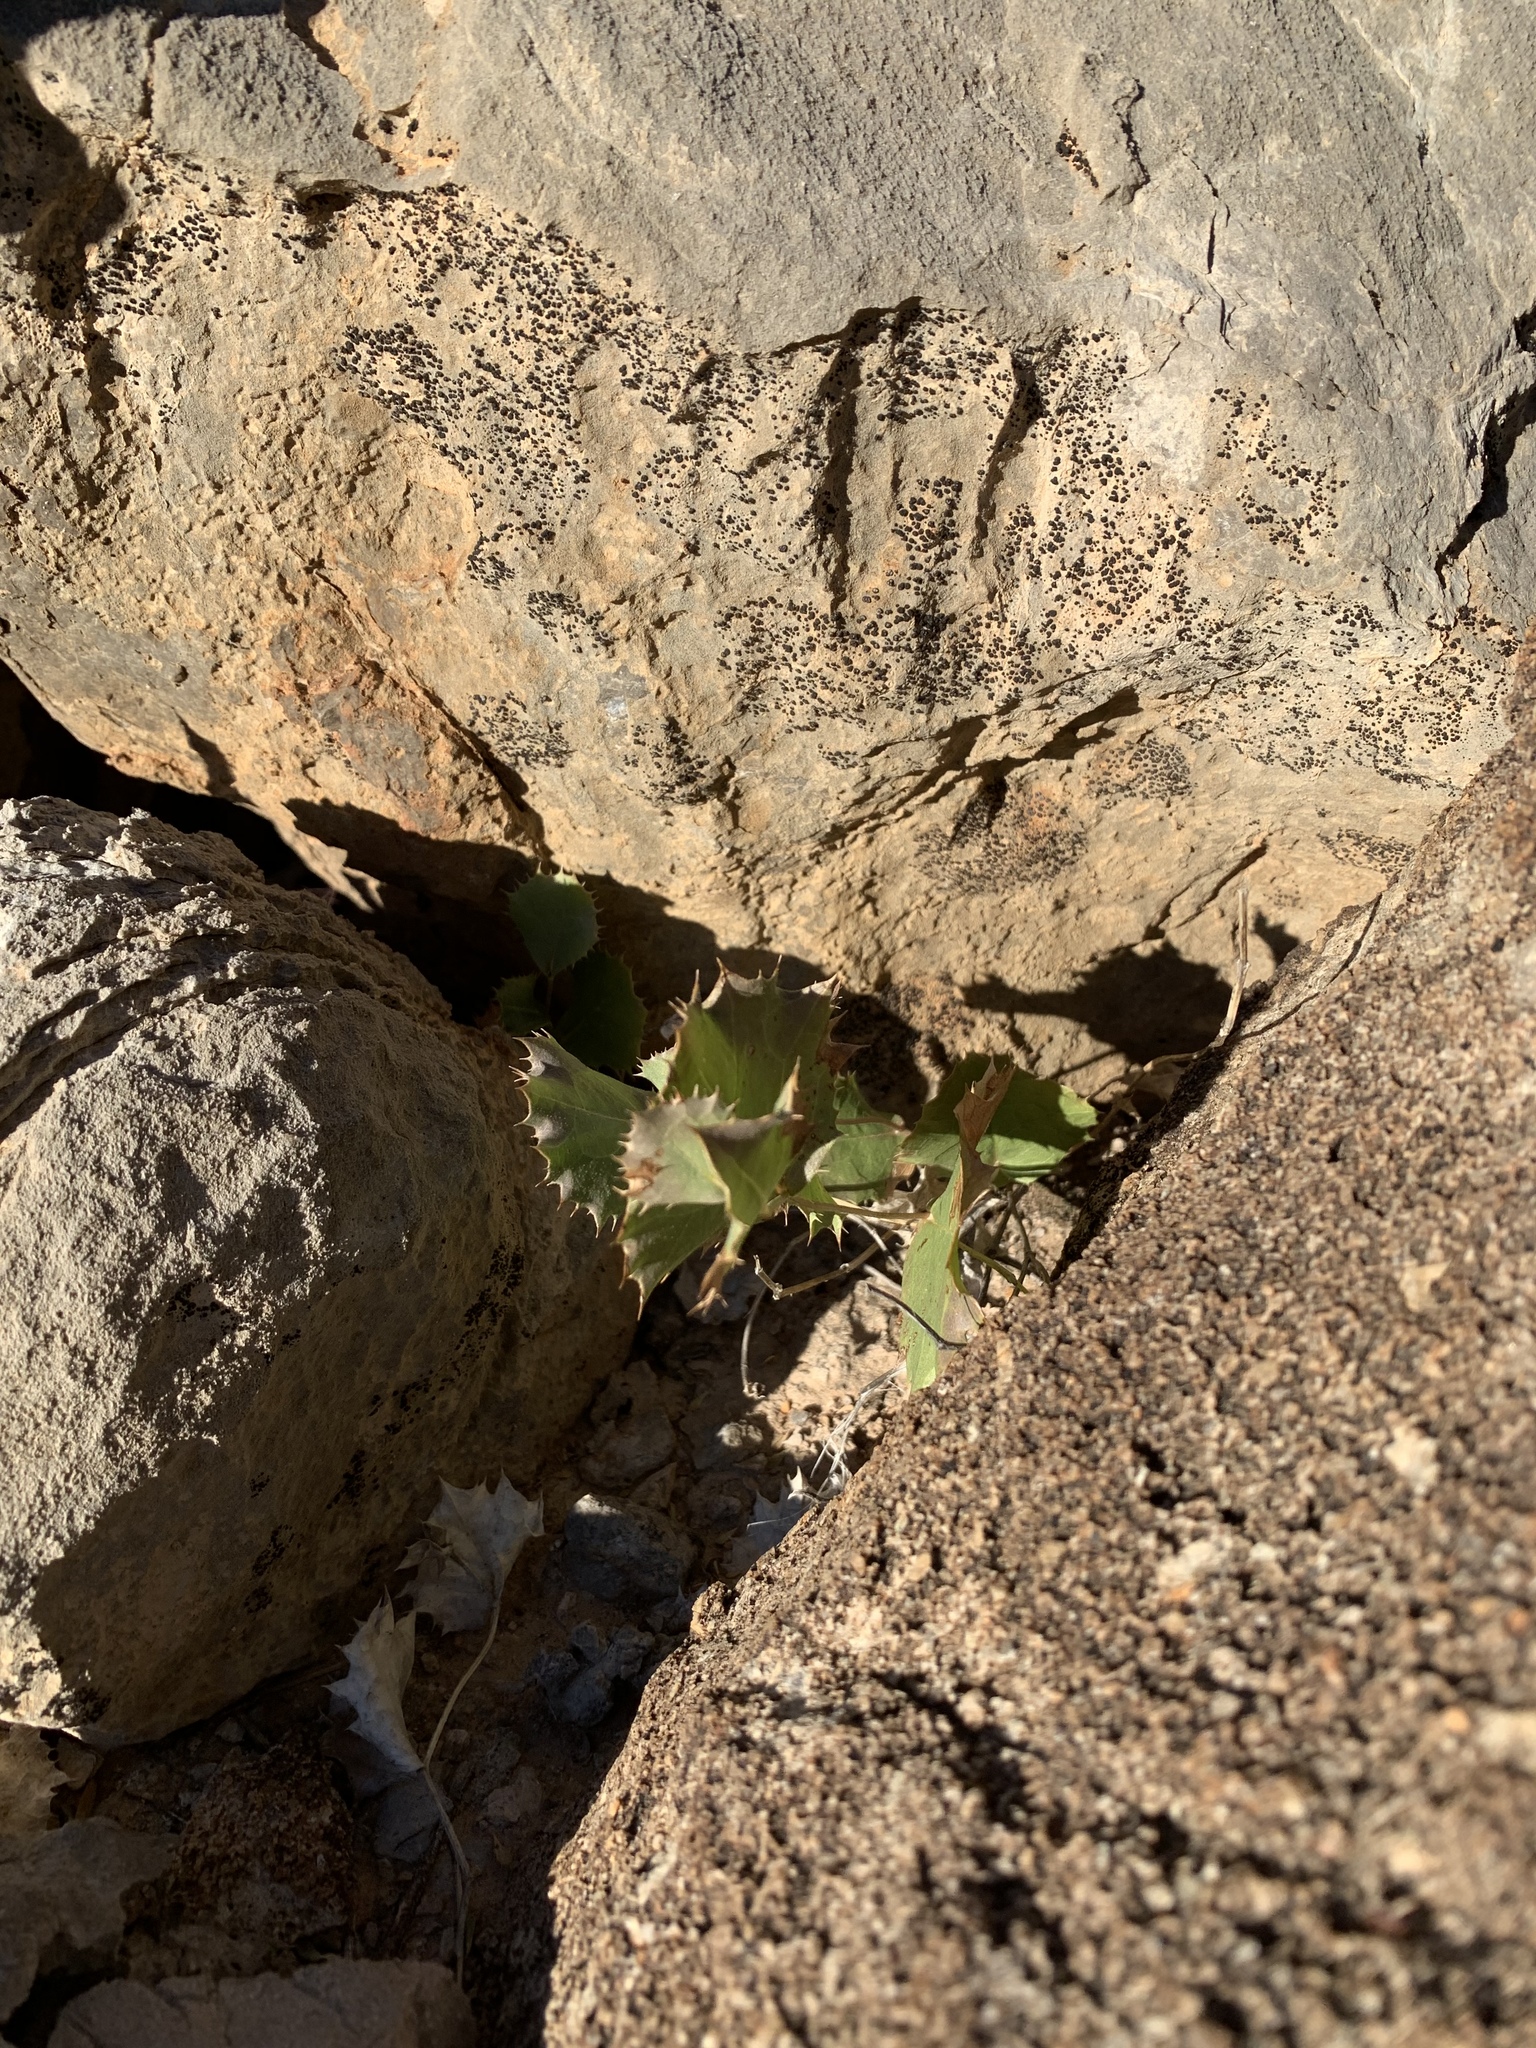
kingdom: Plantae
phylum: Tracheophyta
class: Magnoliopsida
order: Asterales
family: Asteraceae
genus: Acourtia
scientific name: Acourtia nana
